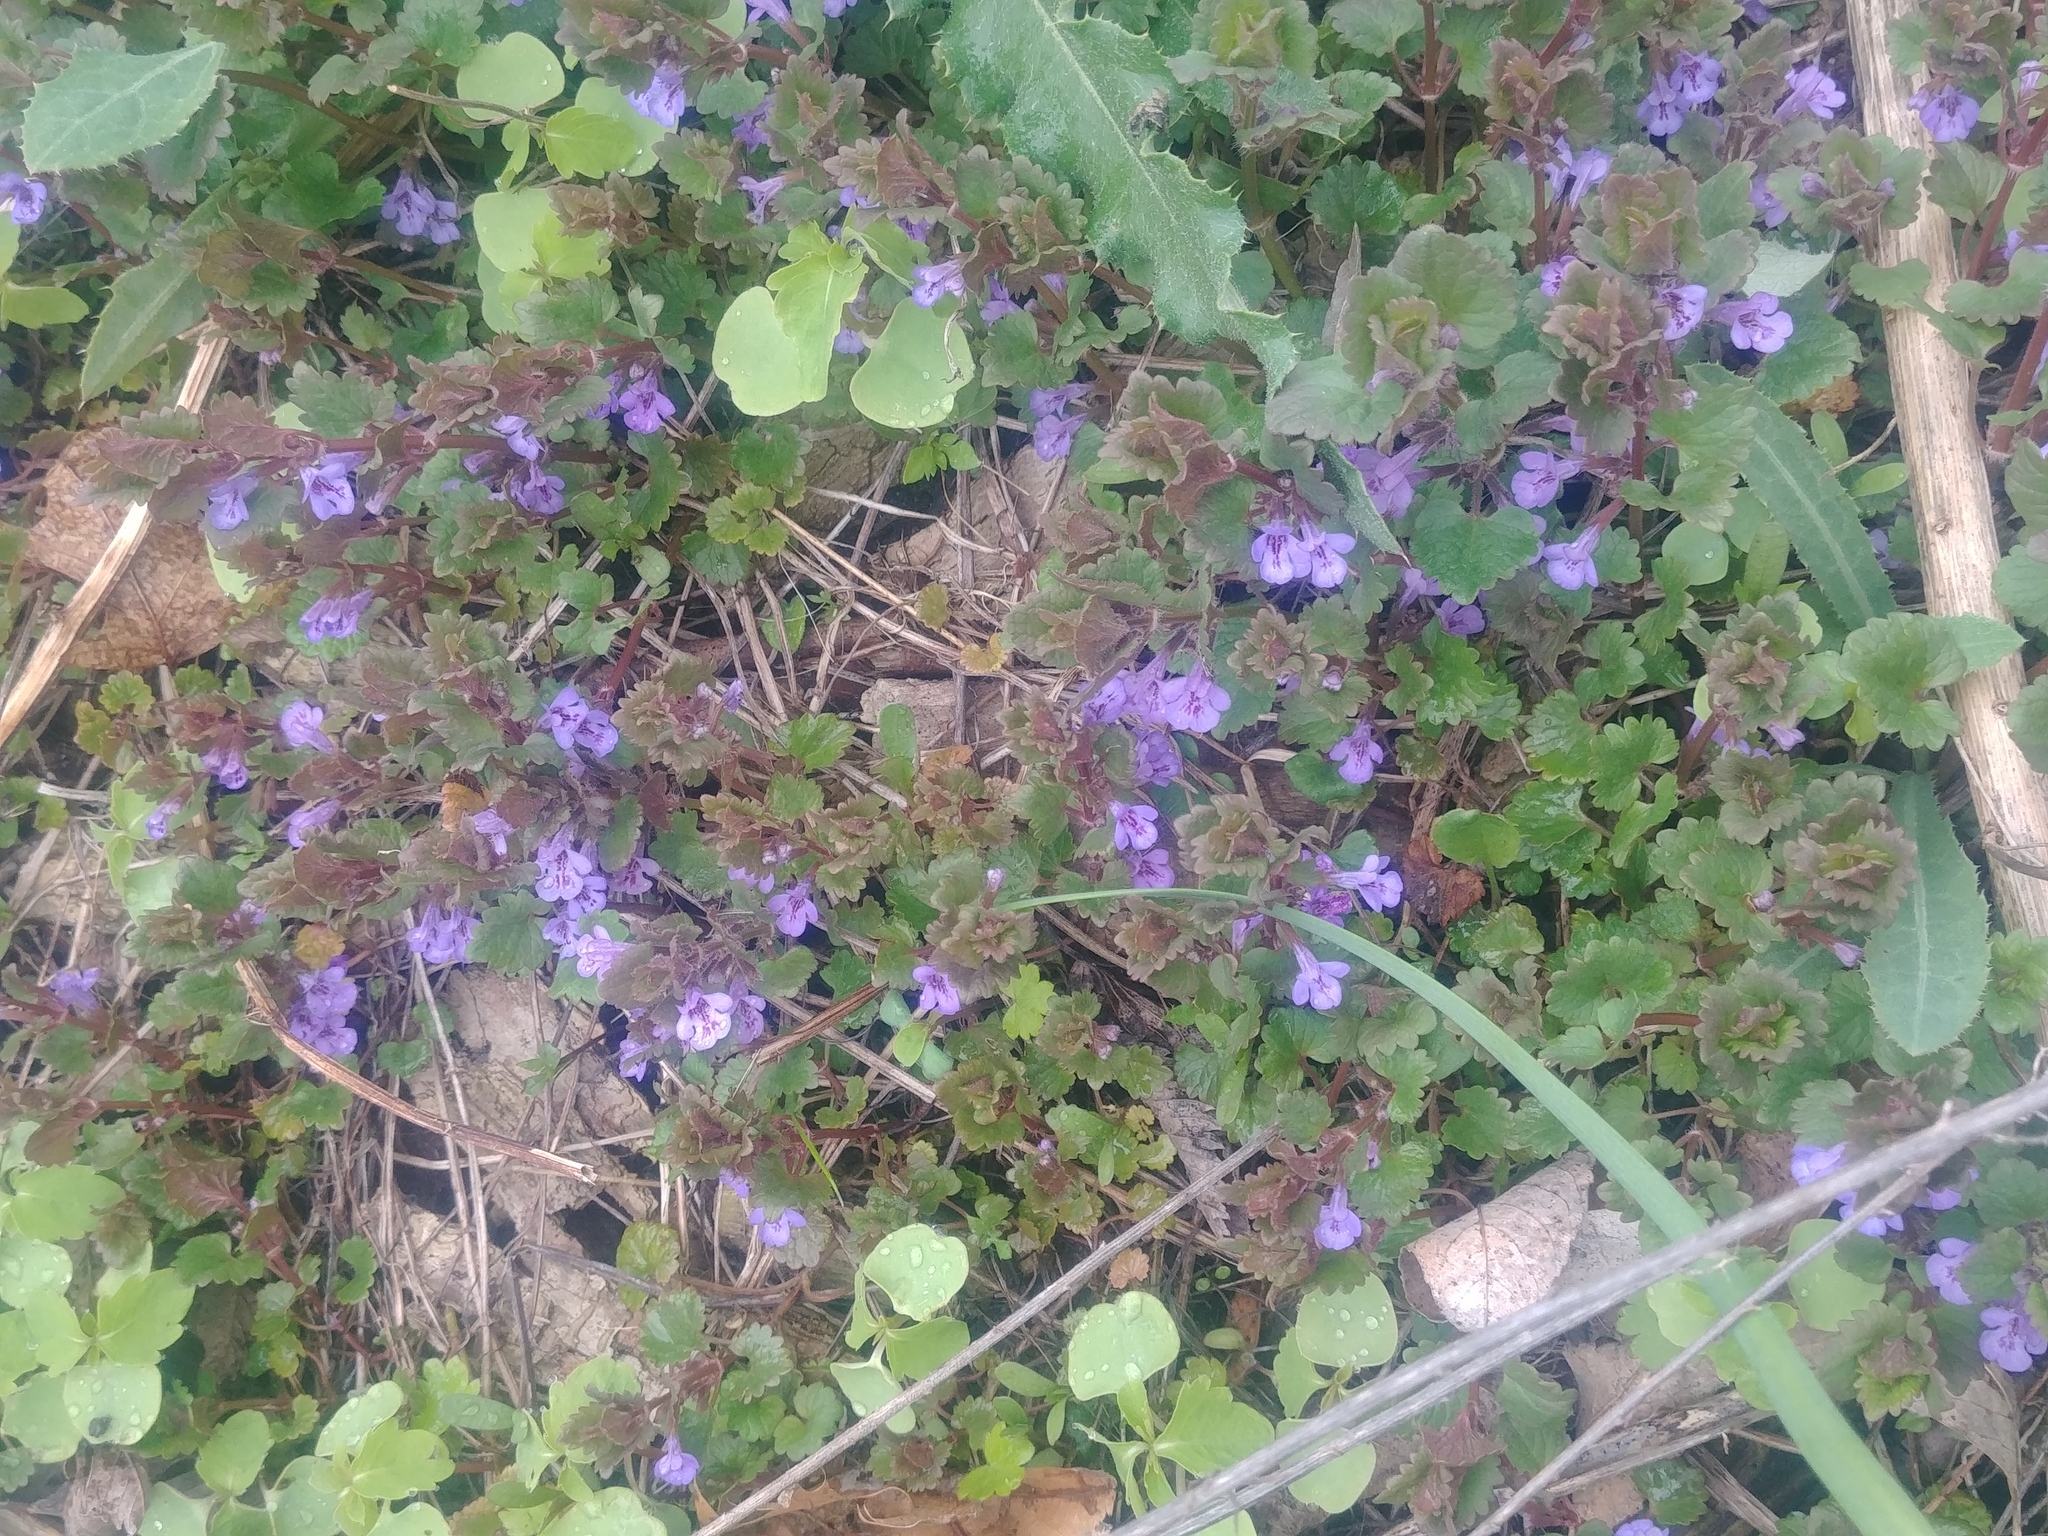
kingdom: Plantae
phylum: Tracheophyta
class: Magnoliopsida
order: Lamiales
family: Lamiaceae
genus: Glechoma
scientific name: Glechoma hederacea
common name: Ground ivy
